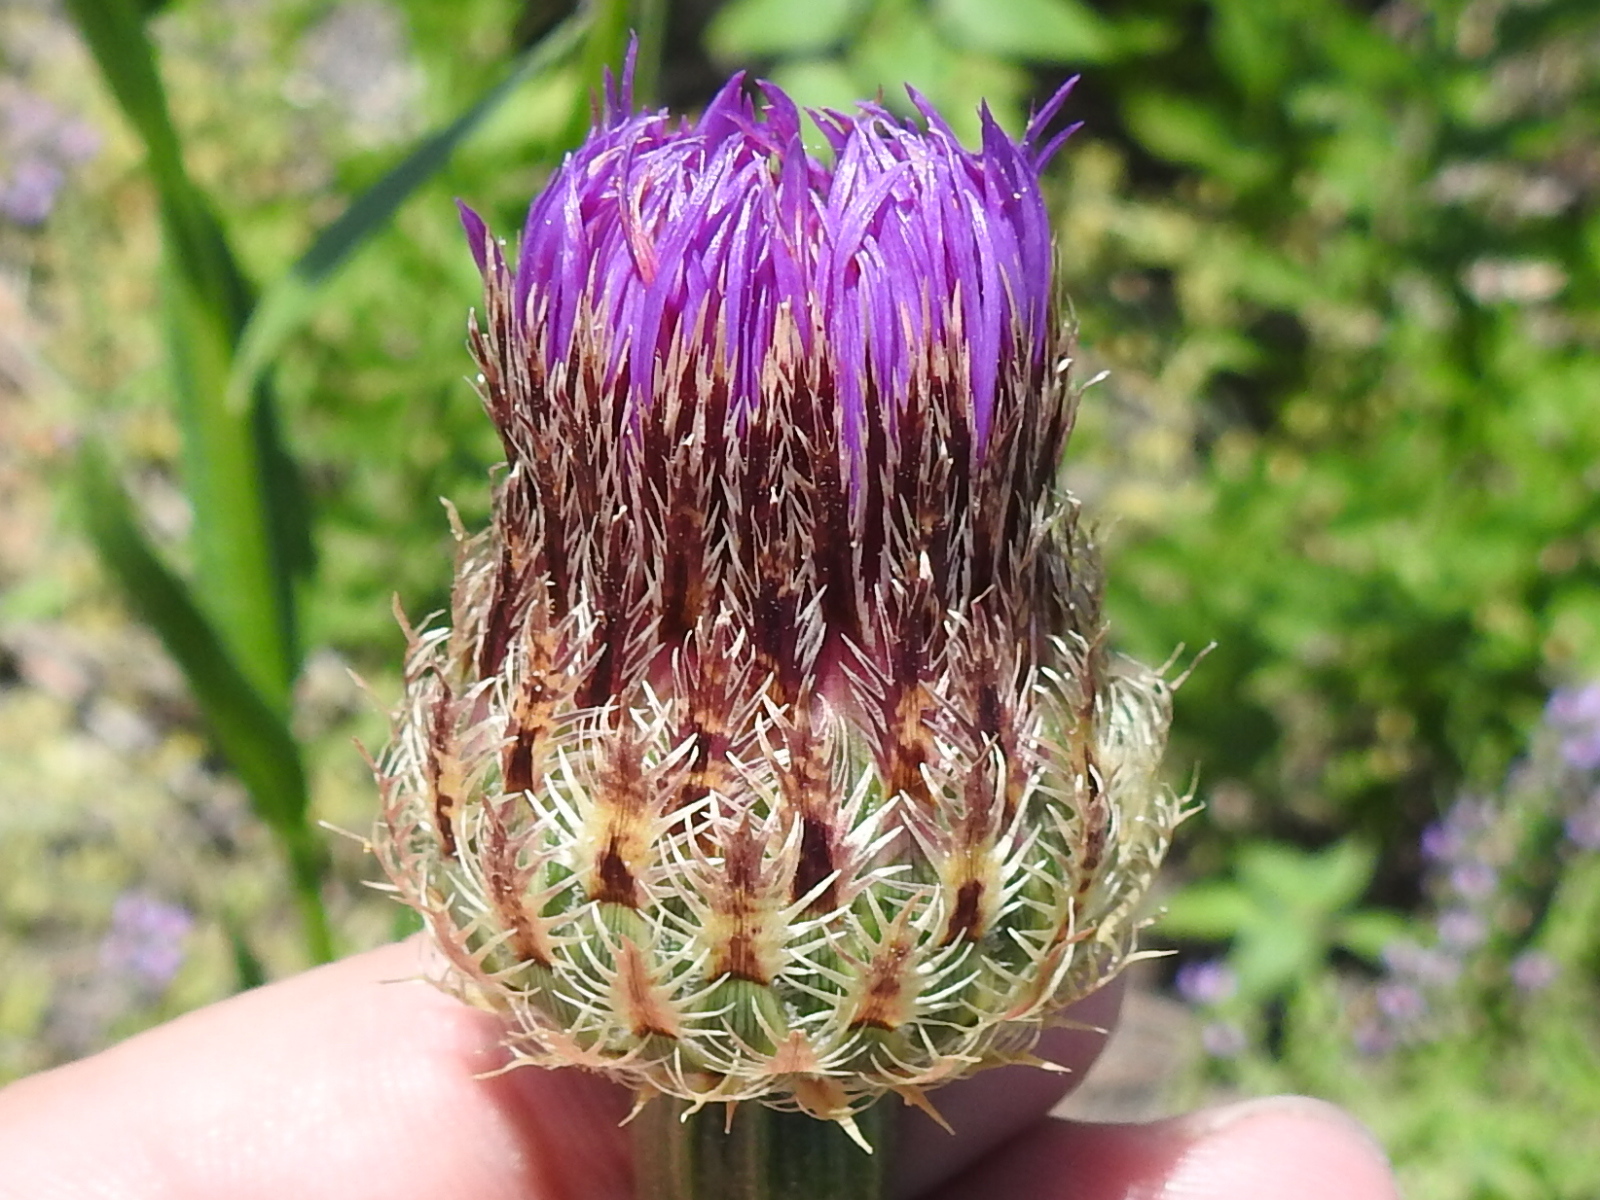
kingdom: Plantae
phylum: Tracheophyta
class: Magnoliopsida
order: Asterales
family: Asteraceae
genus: Plectocephalus
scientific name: Plectocephalus americanus
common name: American basket-flower
